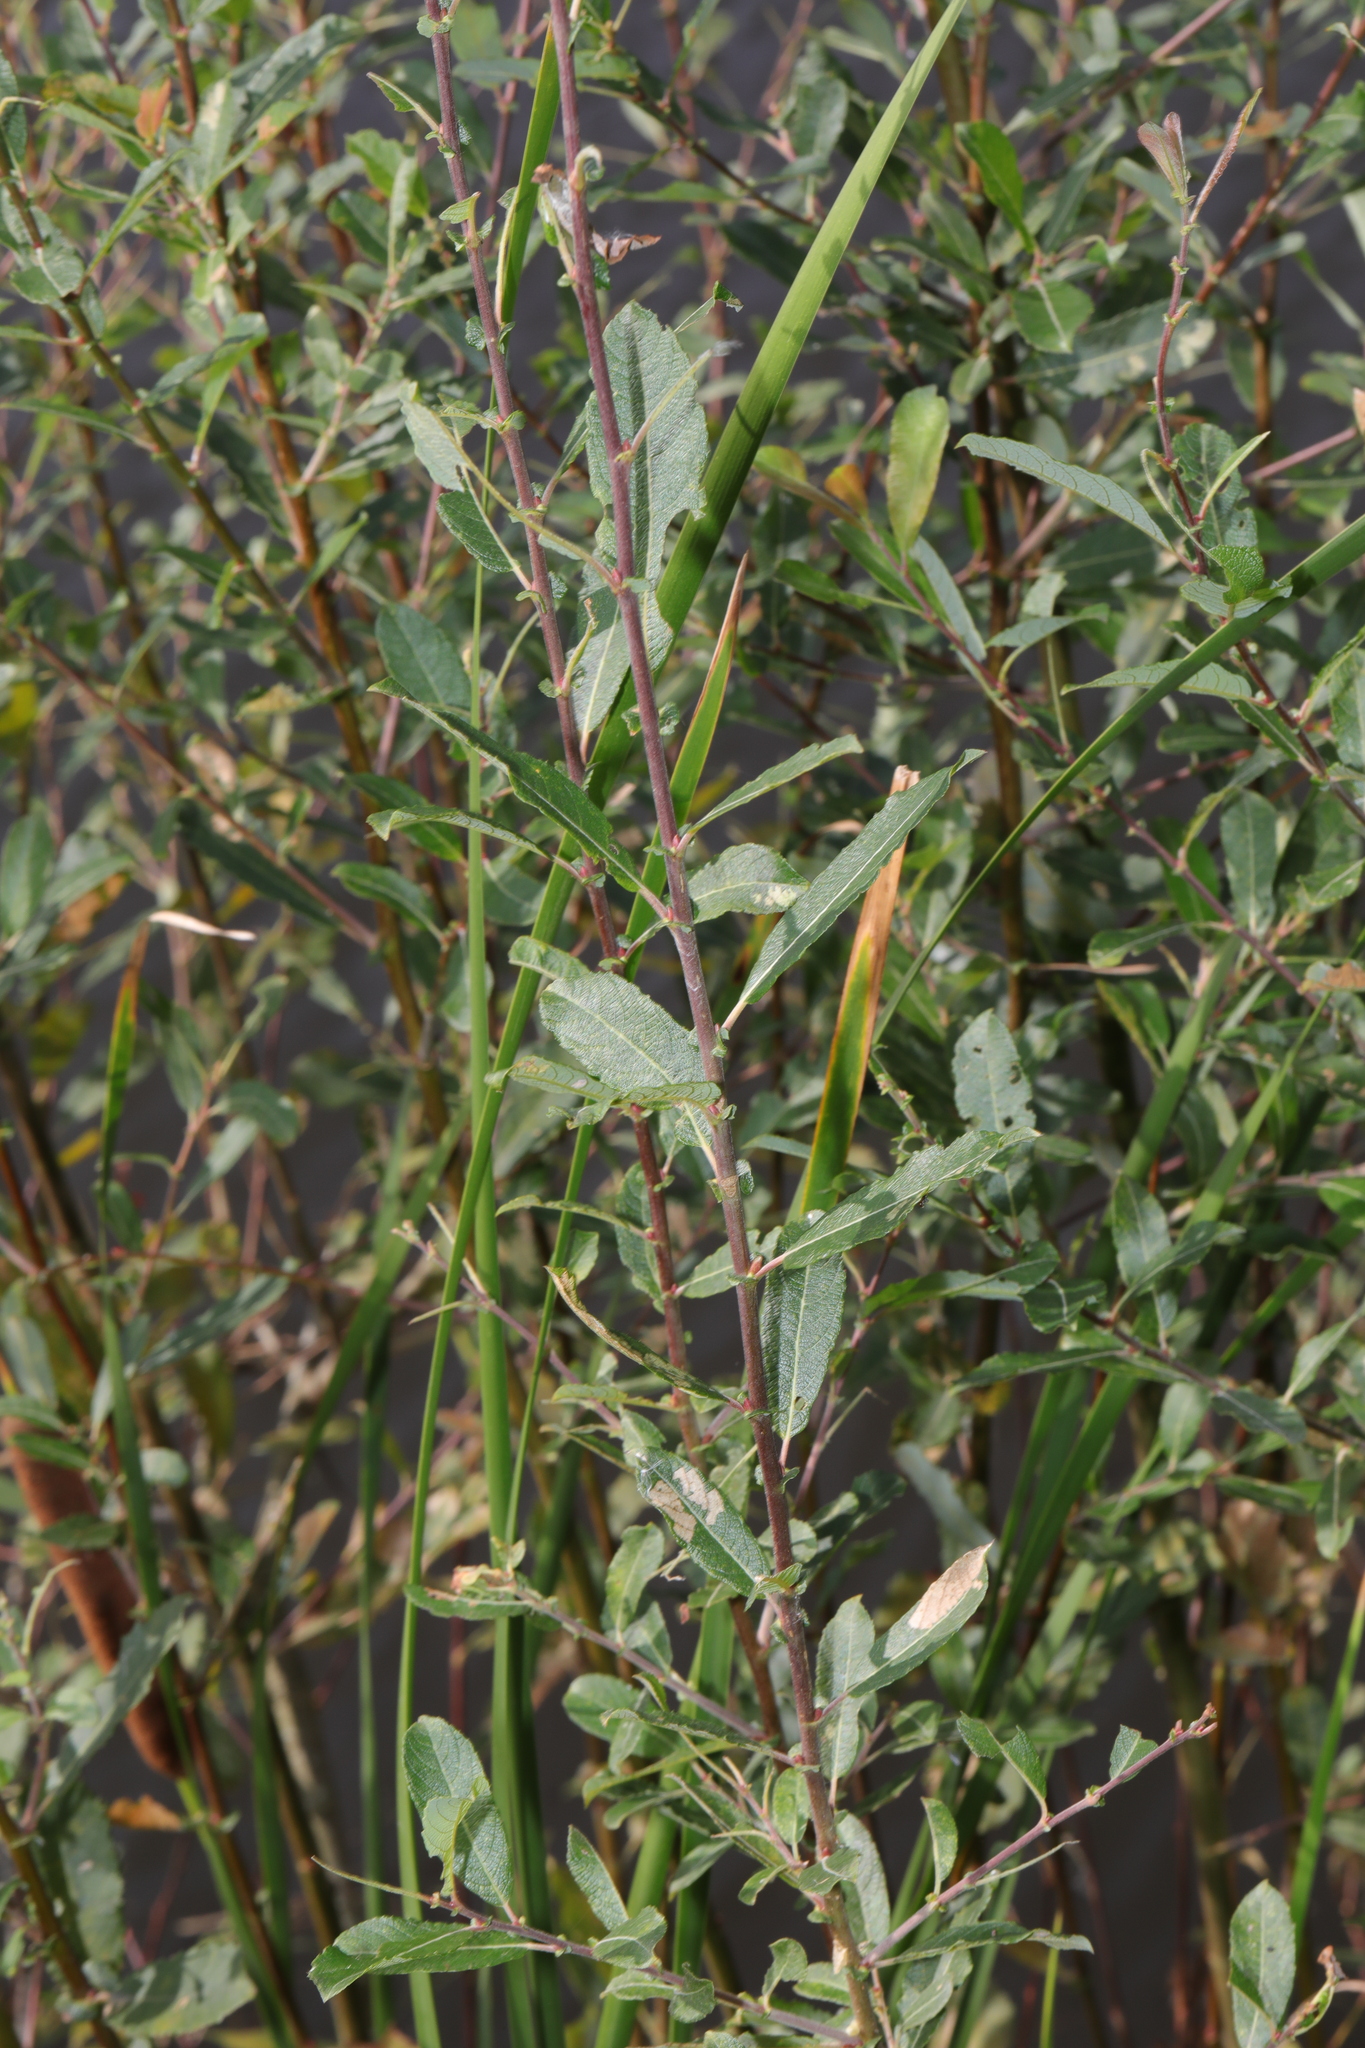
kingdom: Plantae
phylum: Tracheophyta
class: Magnoliopsida
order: Malpighiales
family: Salicaceae
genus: Salix
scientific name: Salix cinerea
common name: Common sallow
